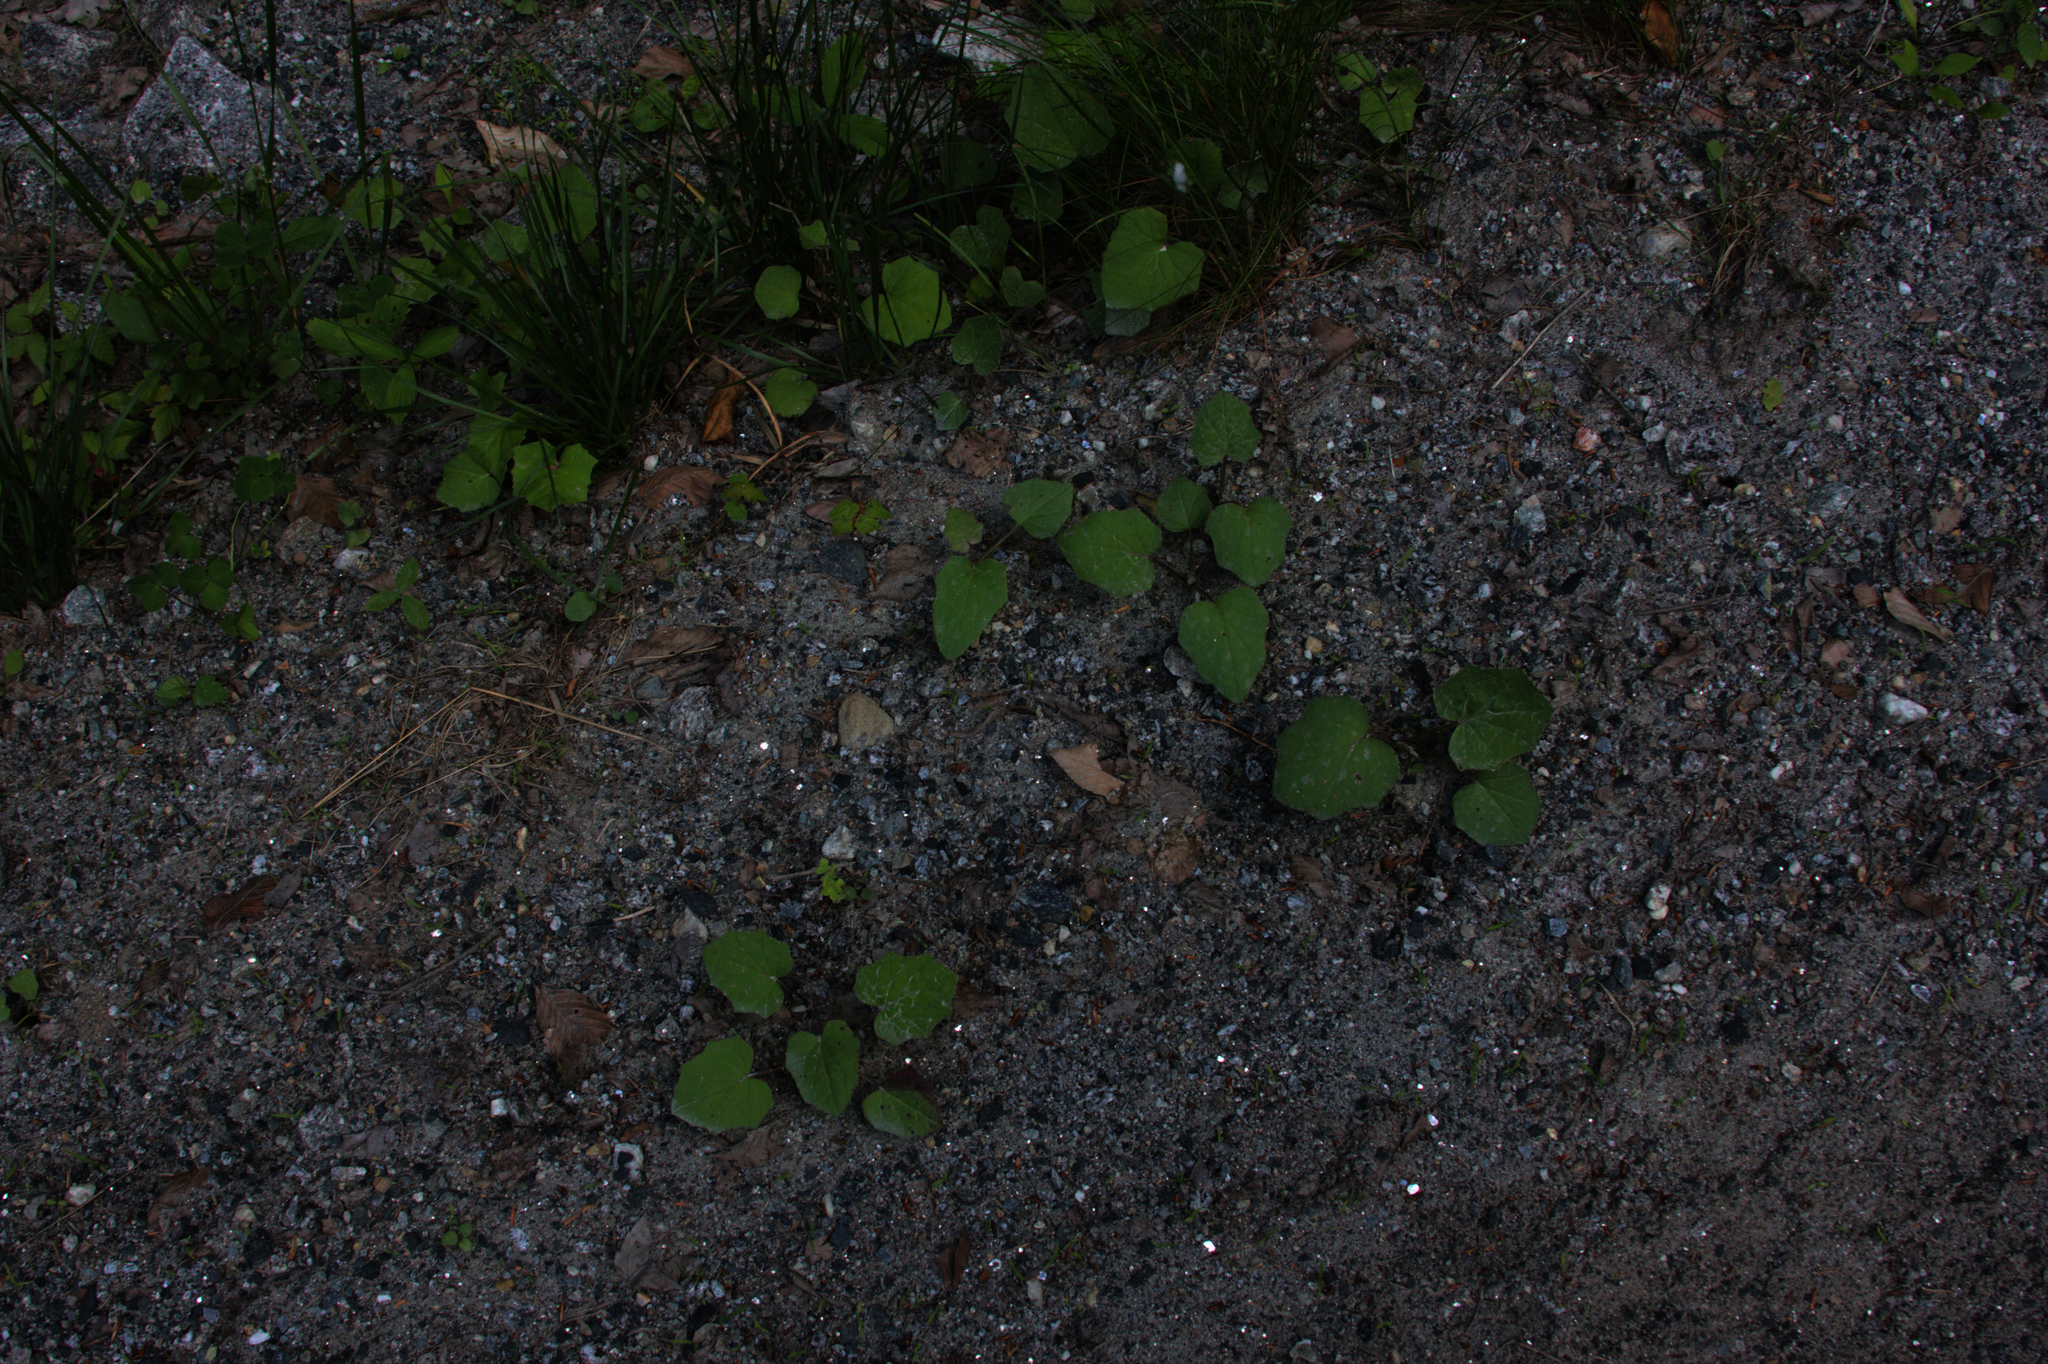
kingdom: Plantae
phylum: Tracheophyta
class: Magnoliopsida
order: Asterales
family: Asteraceae
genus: Tussilago
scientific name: Tussilago farfara
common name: Coltsfoot
